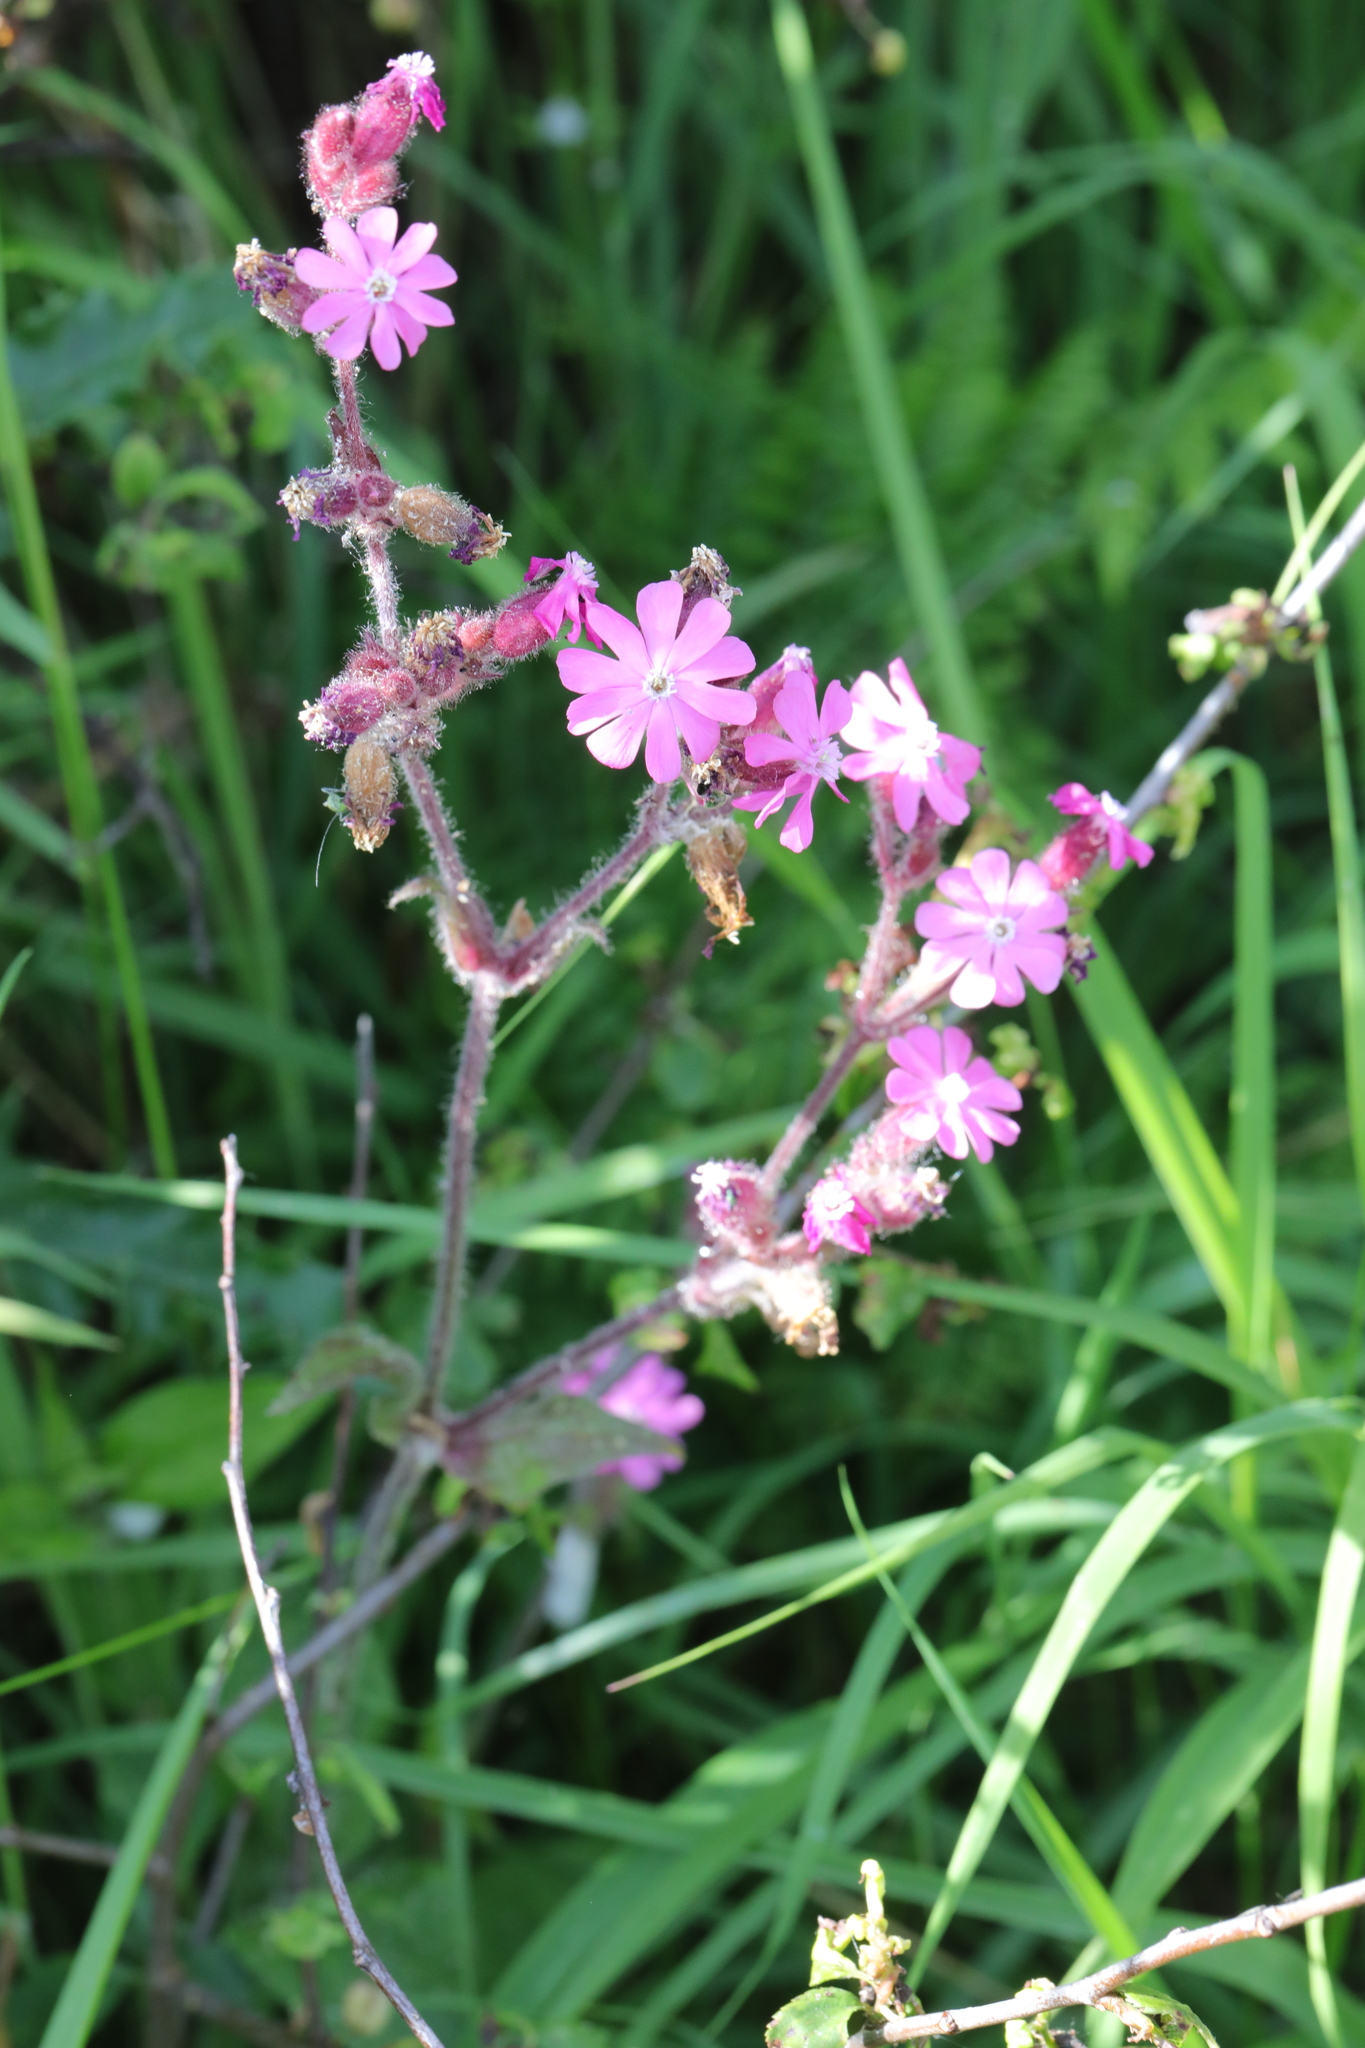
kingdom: Plantae
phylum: Tracheophyta
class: Magnoliopsida
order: Caryophyllales
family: Caryophyllaceae
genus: Silene
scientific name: Silene dioica
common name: Red campion
